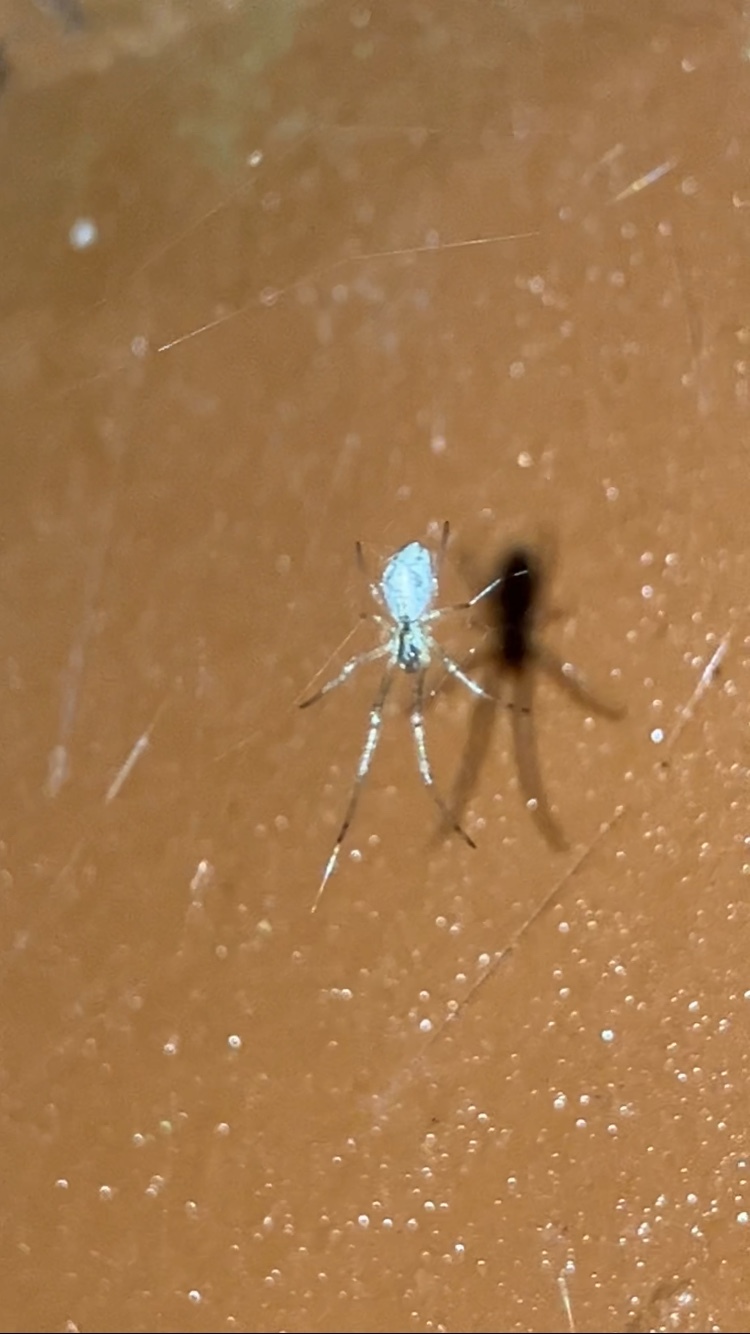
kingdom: Animalia
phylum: Arthropoda
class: Arachnida
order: Araneae
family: Tetragnathidae
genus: Tetragnatha
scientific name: Tetragnatha
